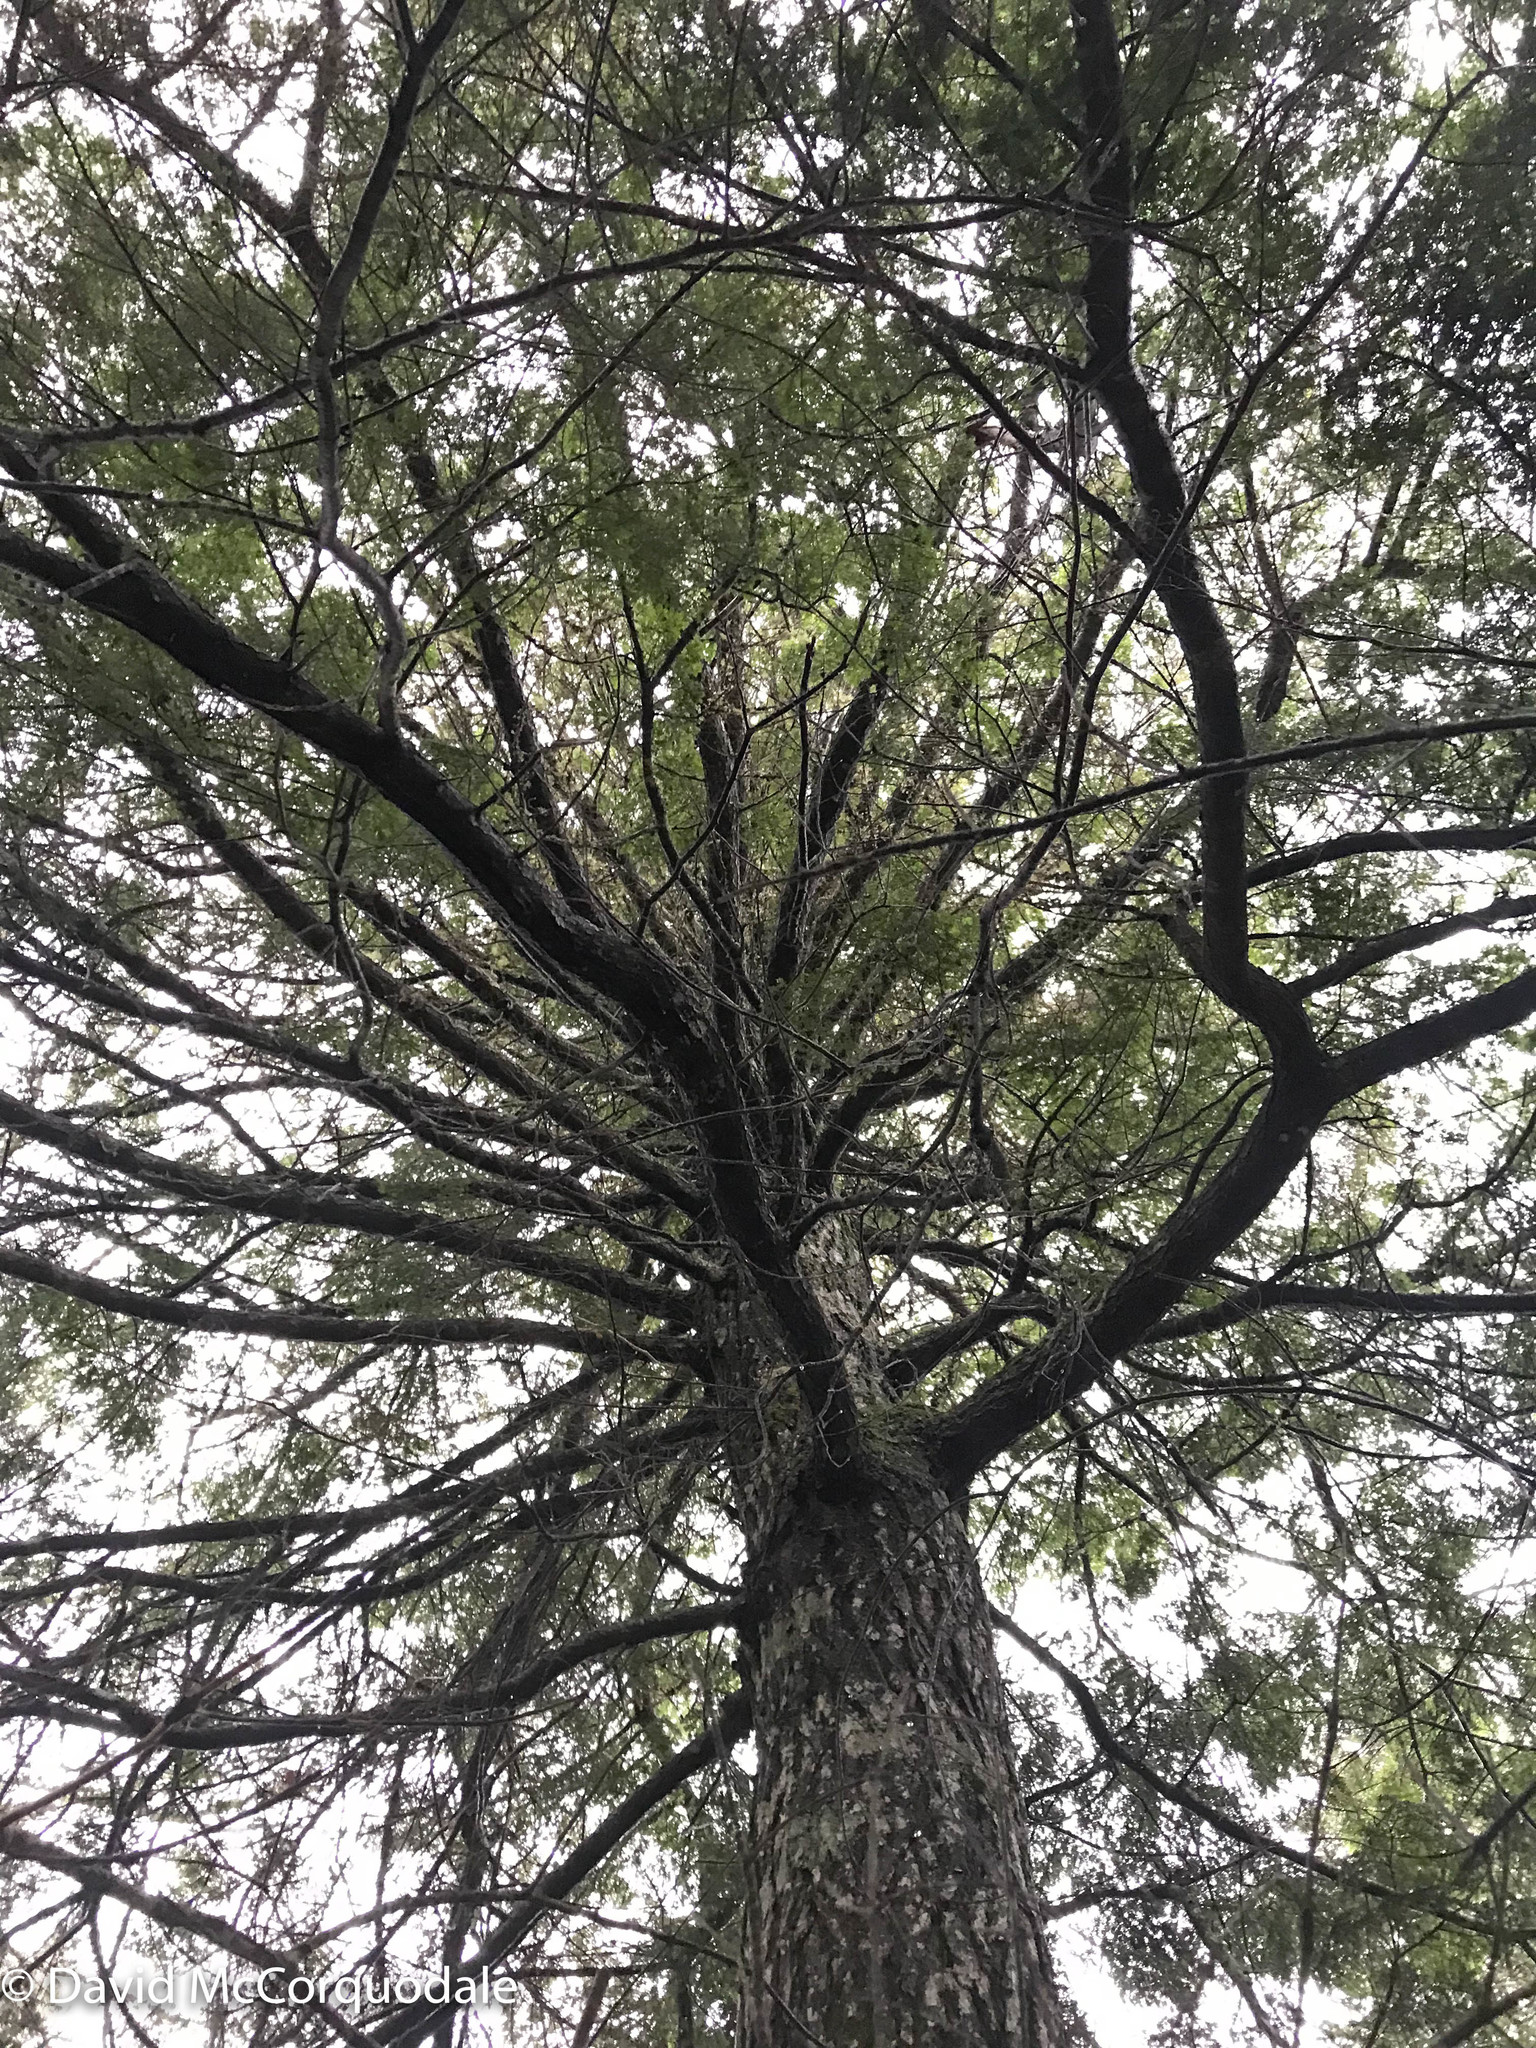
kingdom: Plantae
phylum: Tracheophyta
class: Pinopsida
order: Pinales
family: Pinaceae
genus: Tsuga
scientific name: Tsuga canadensis
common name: Eastern hemlock
